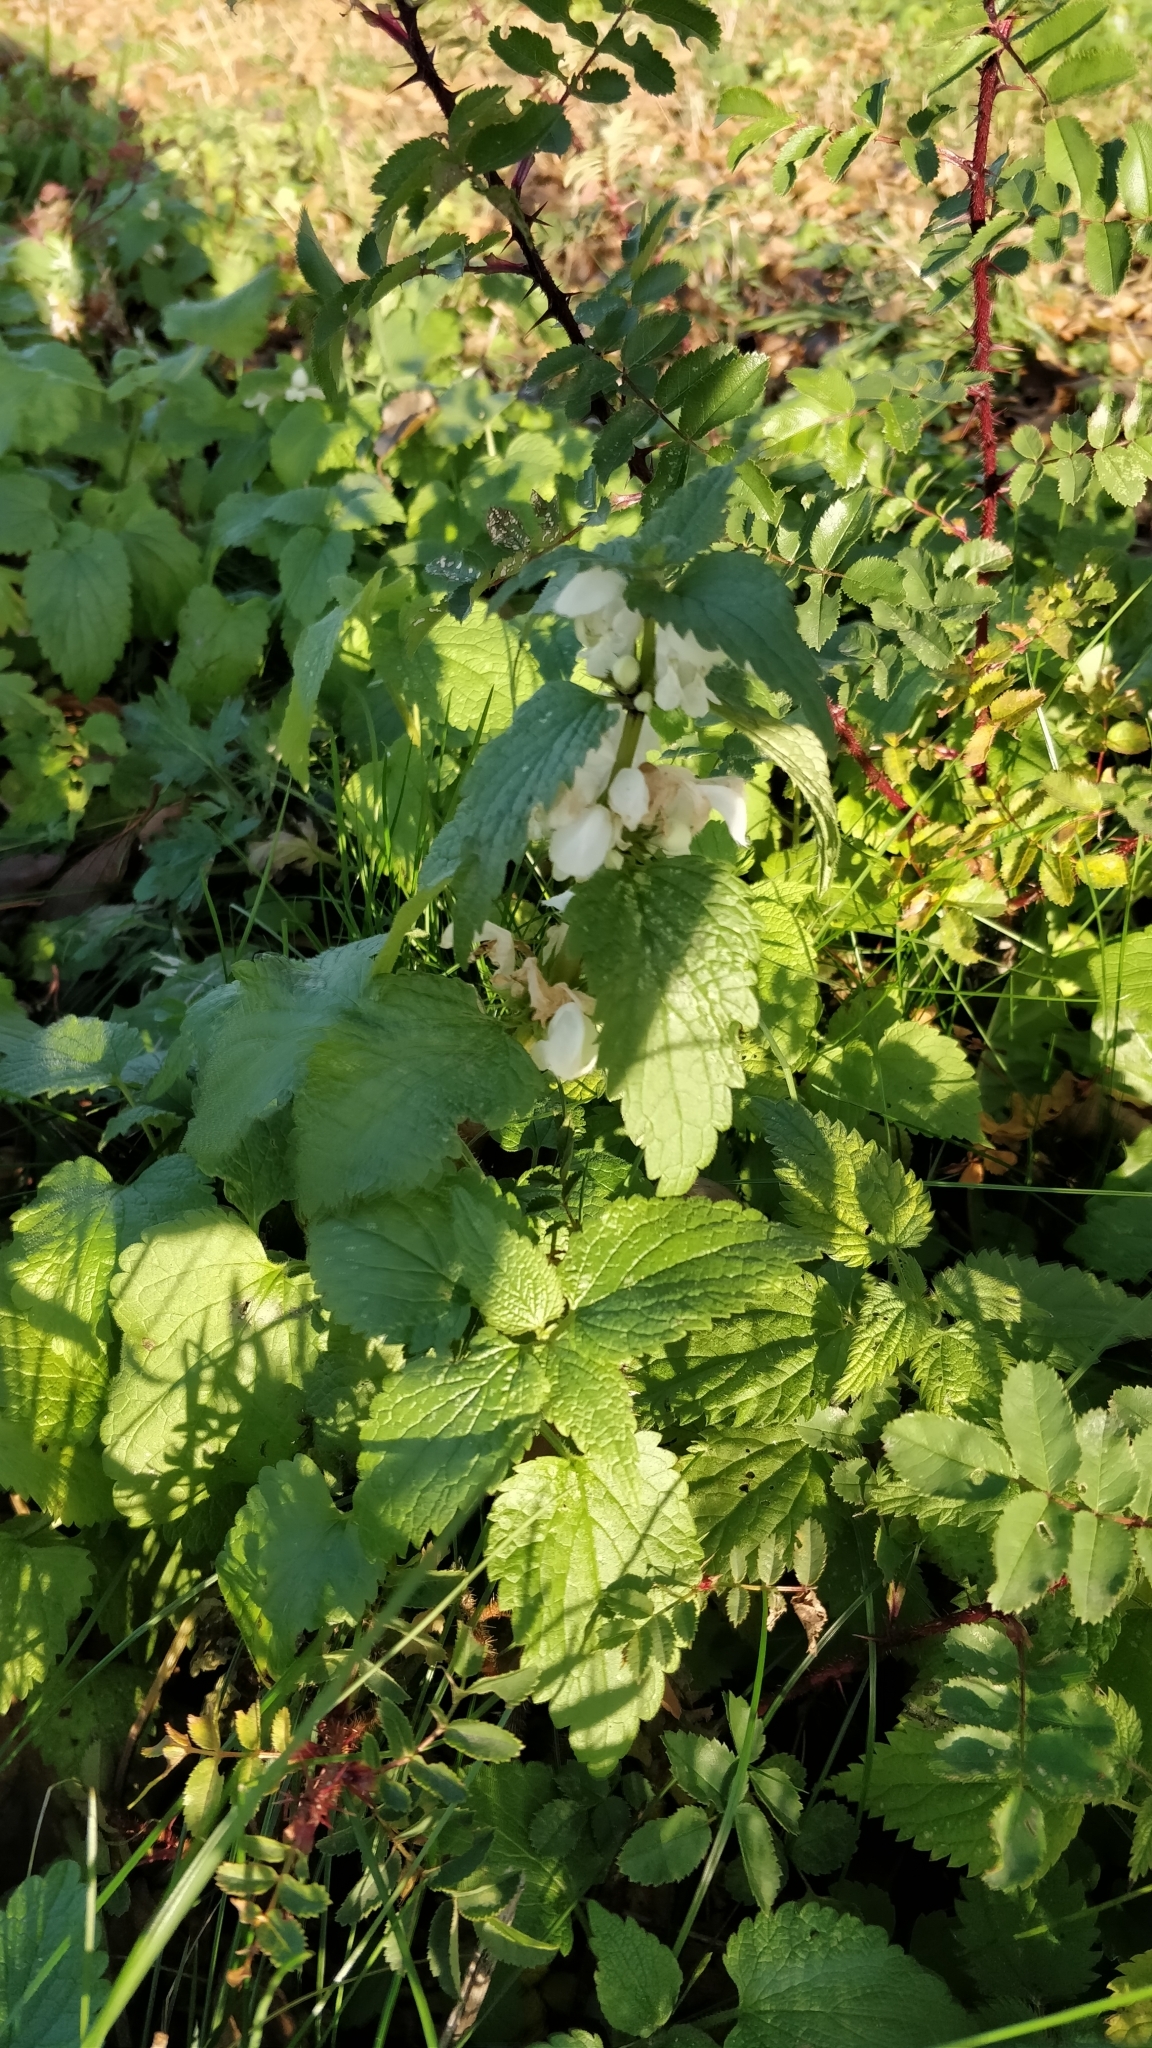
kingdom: Plantae
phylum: Tracheophyta
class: Magnoliopsida
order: Lamiales
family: Lamiaceae
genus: Lamium
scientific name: Lamium album
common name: White dead-nettle
